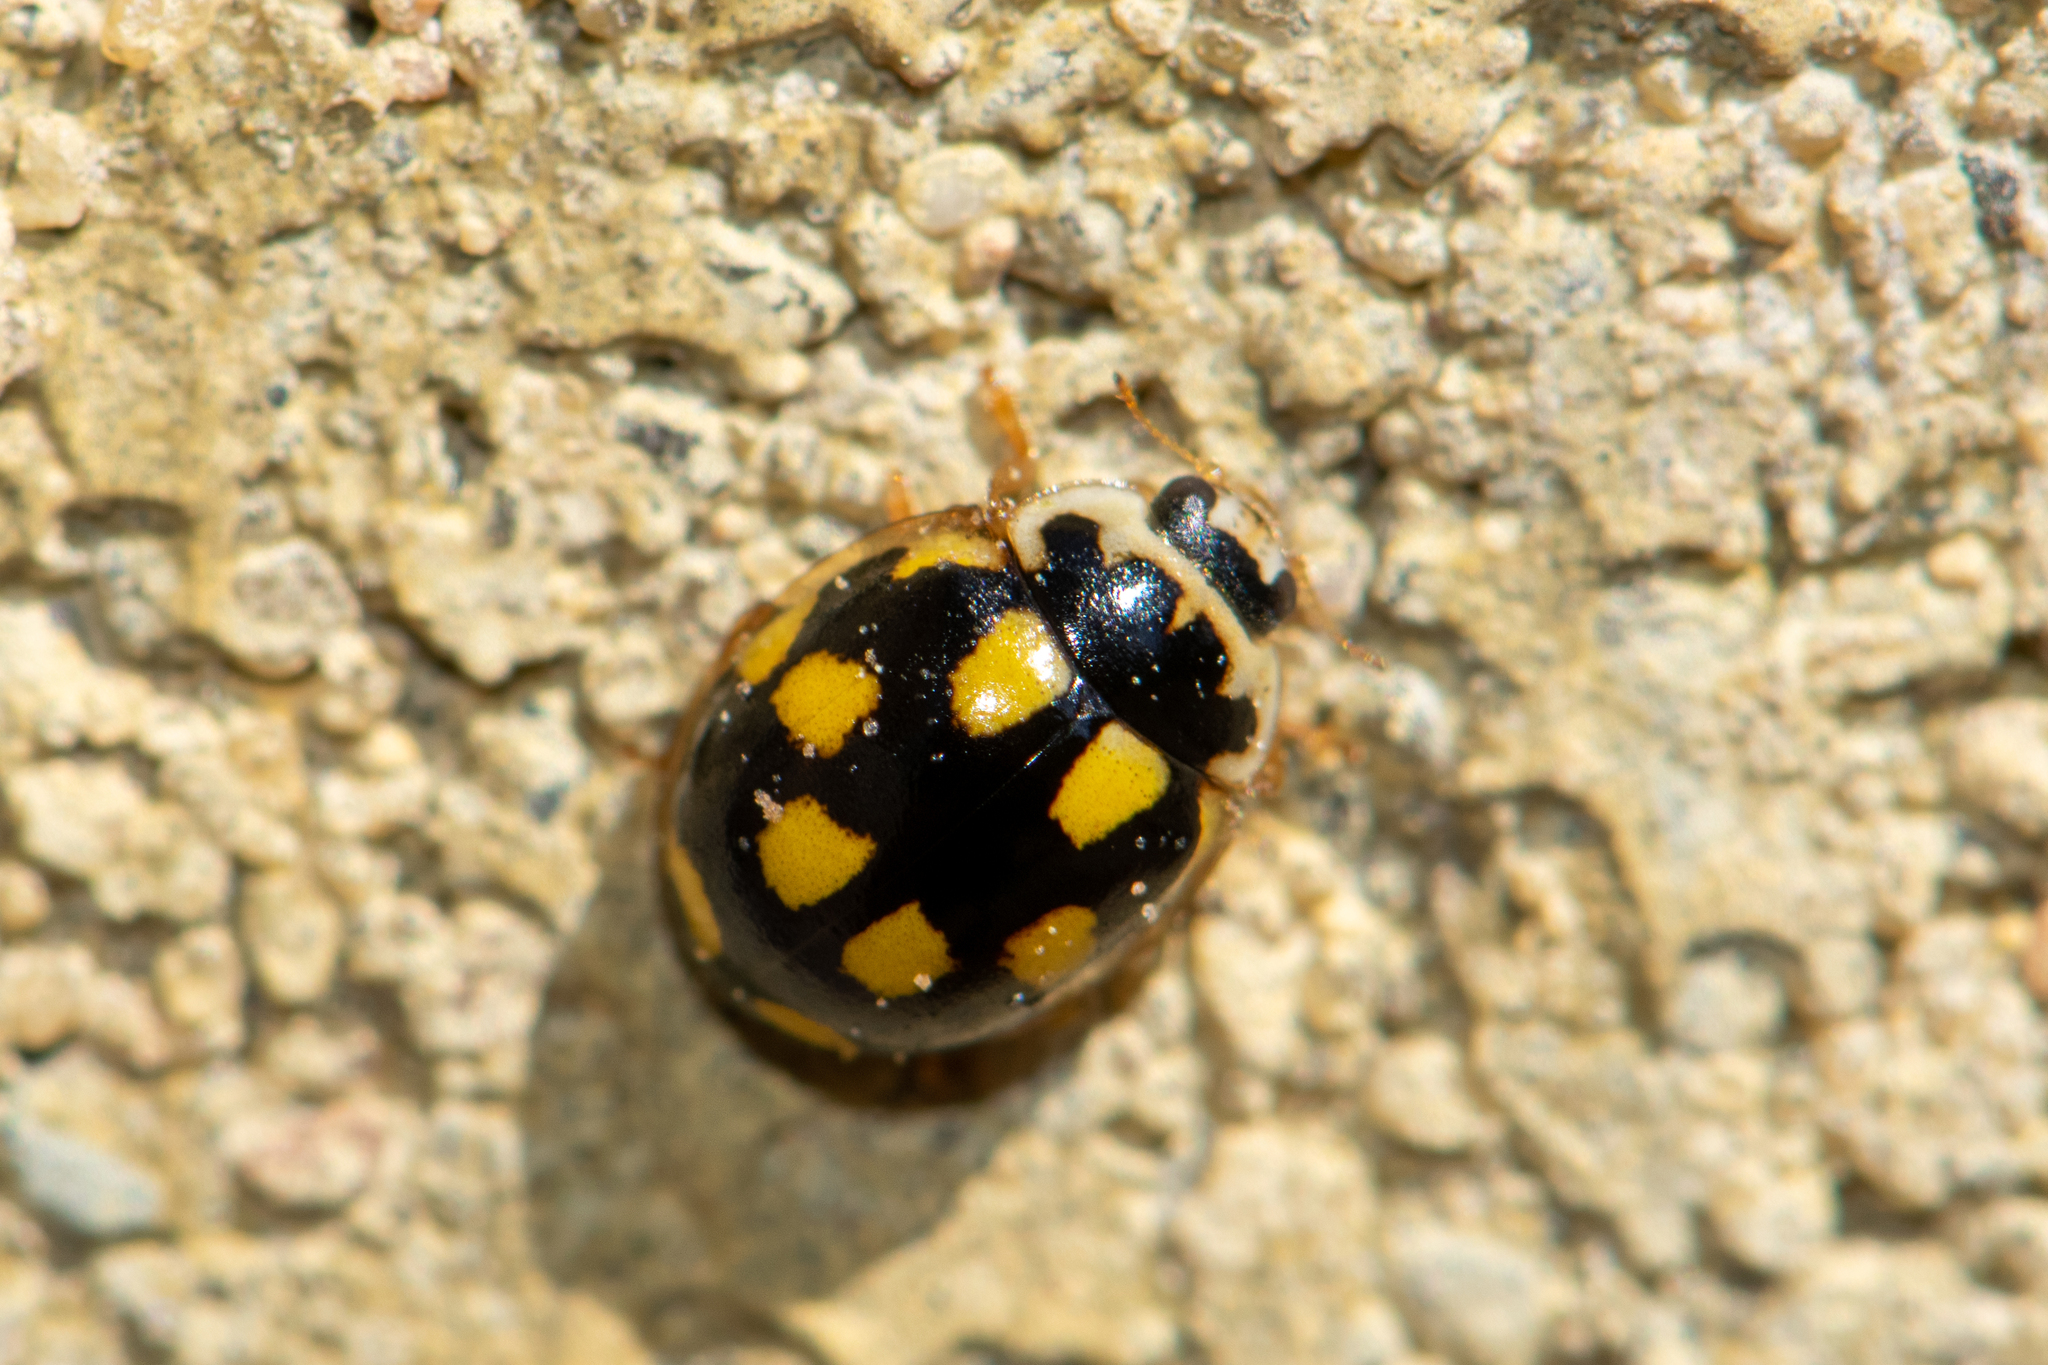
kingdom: Animalia
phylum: Arthropoda
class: Insecta
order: Coleoptera
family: Coccinellidae
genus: Propylaea
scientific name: Propylaea quatuordecimpunctata
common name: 14-spotted ladybird beetle
